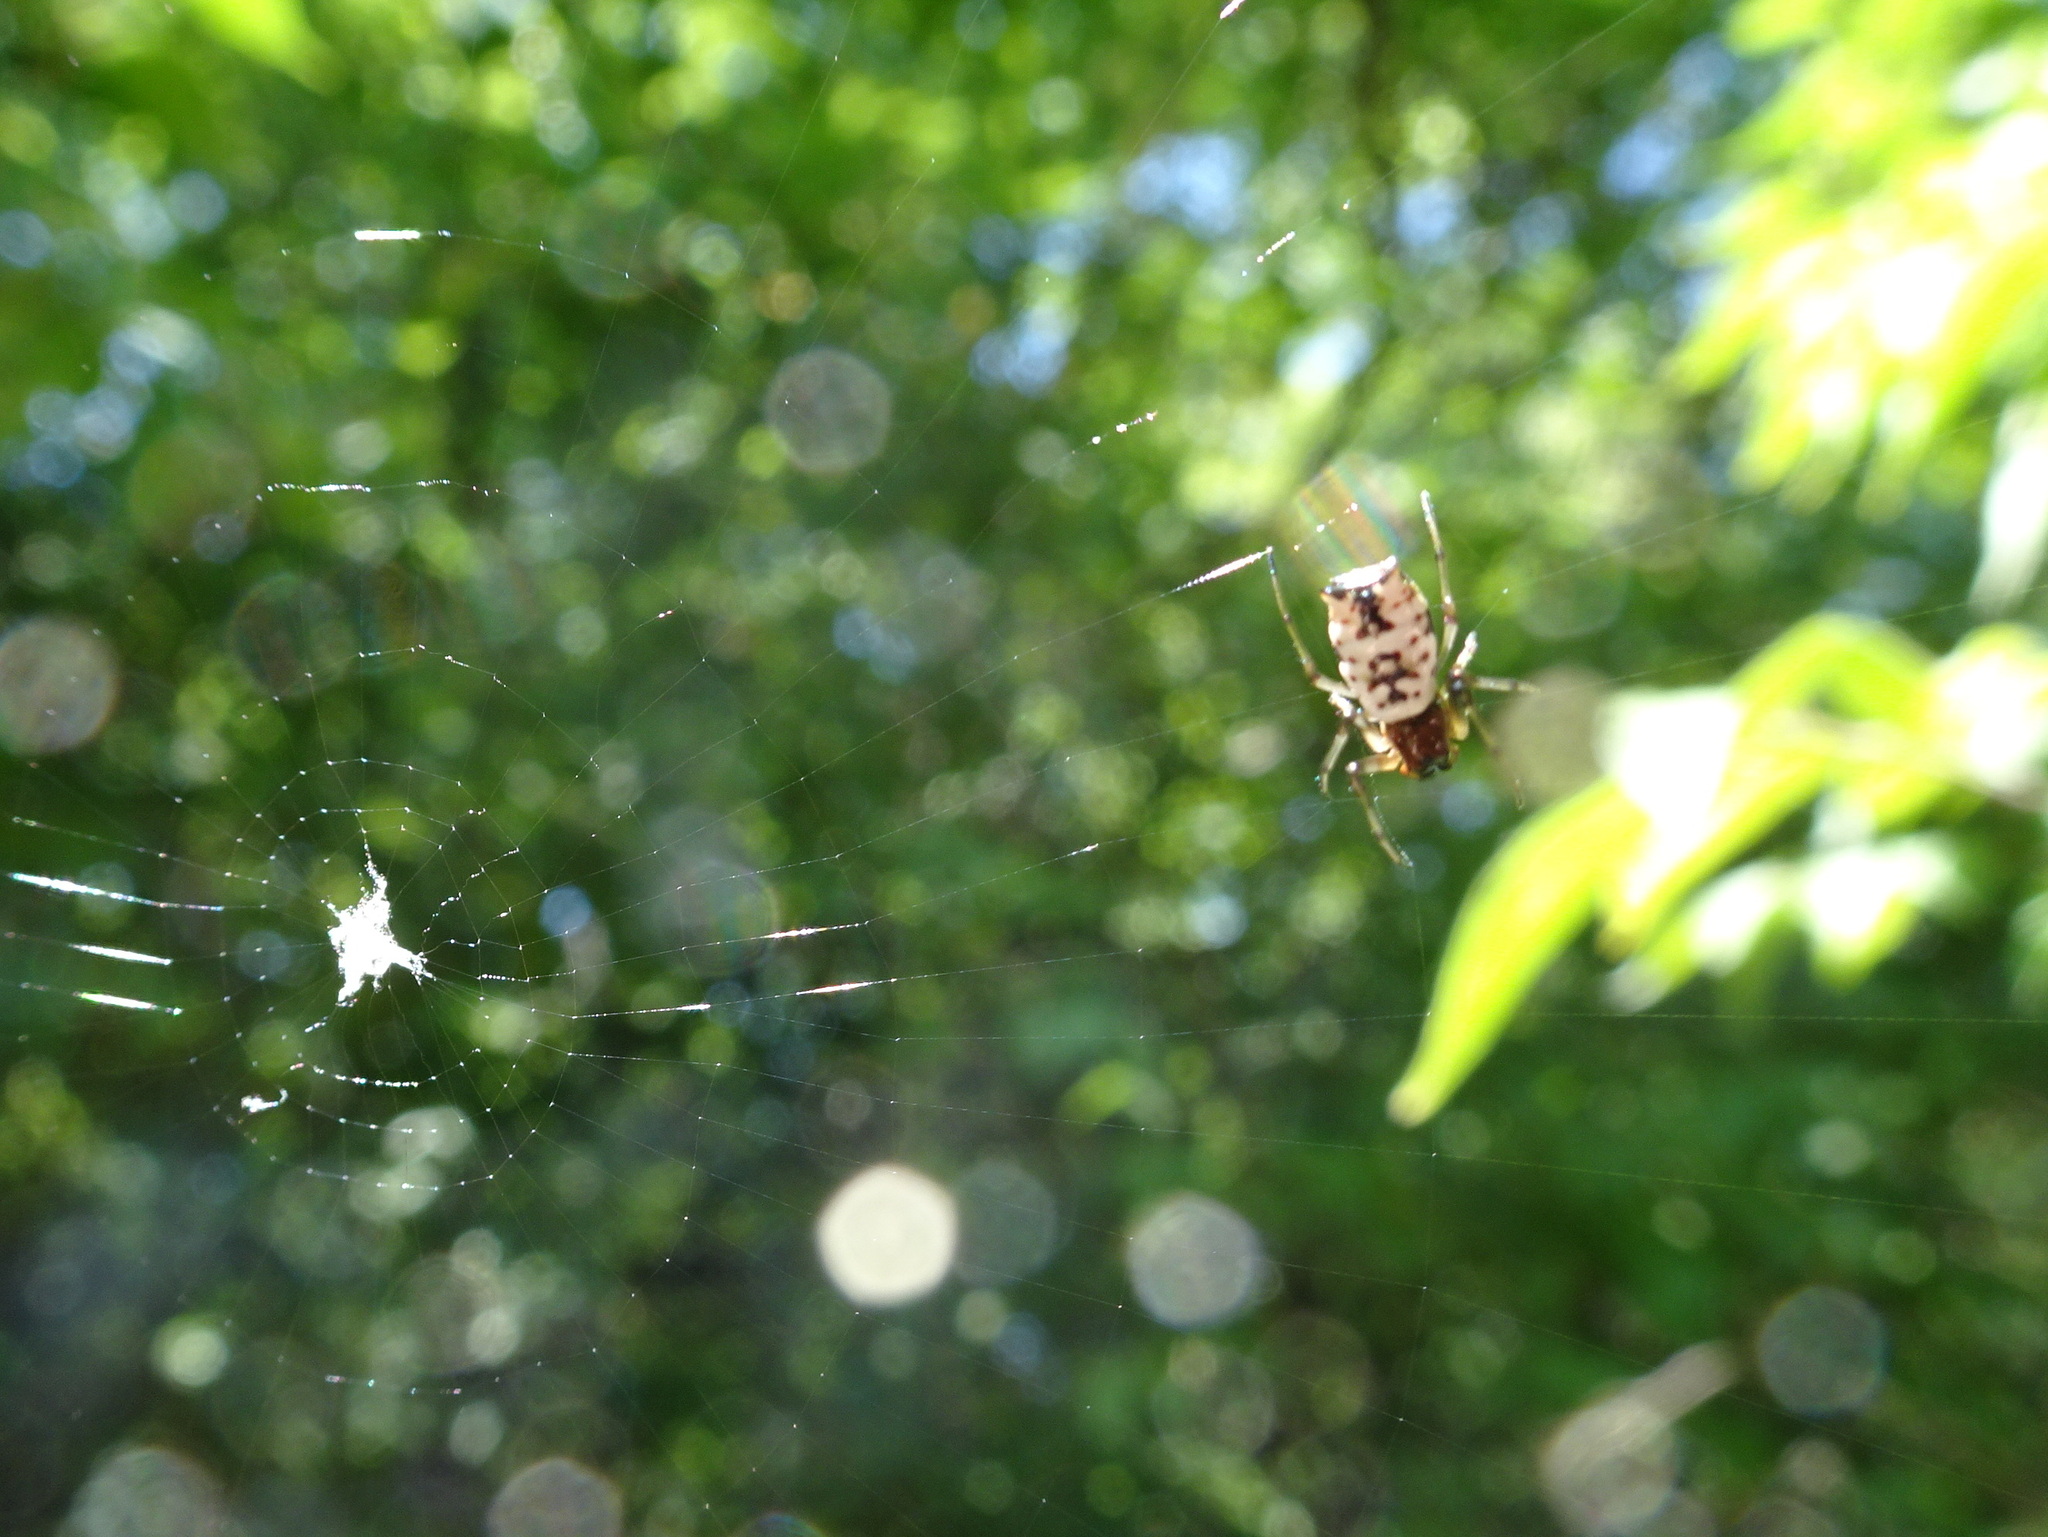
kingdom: Animalia
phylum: Arthropoda
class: Arachnida
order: Araneae
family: Araneidae
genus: Micrathena
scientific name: Micrathena mitrata
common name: Orb weavers
